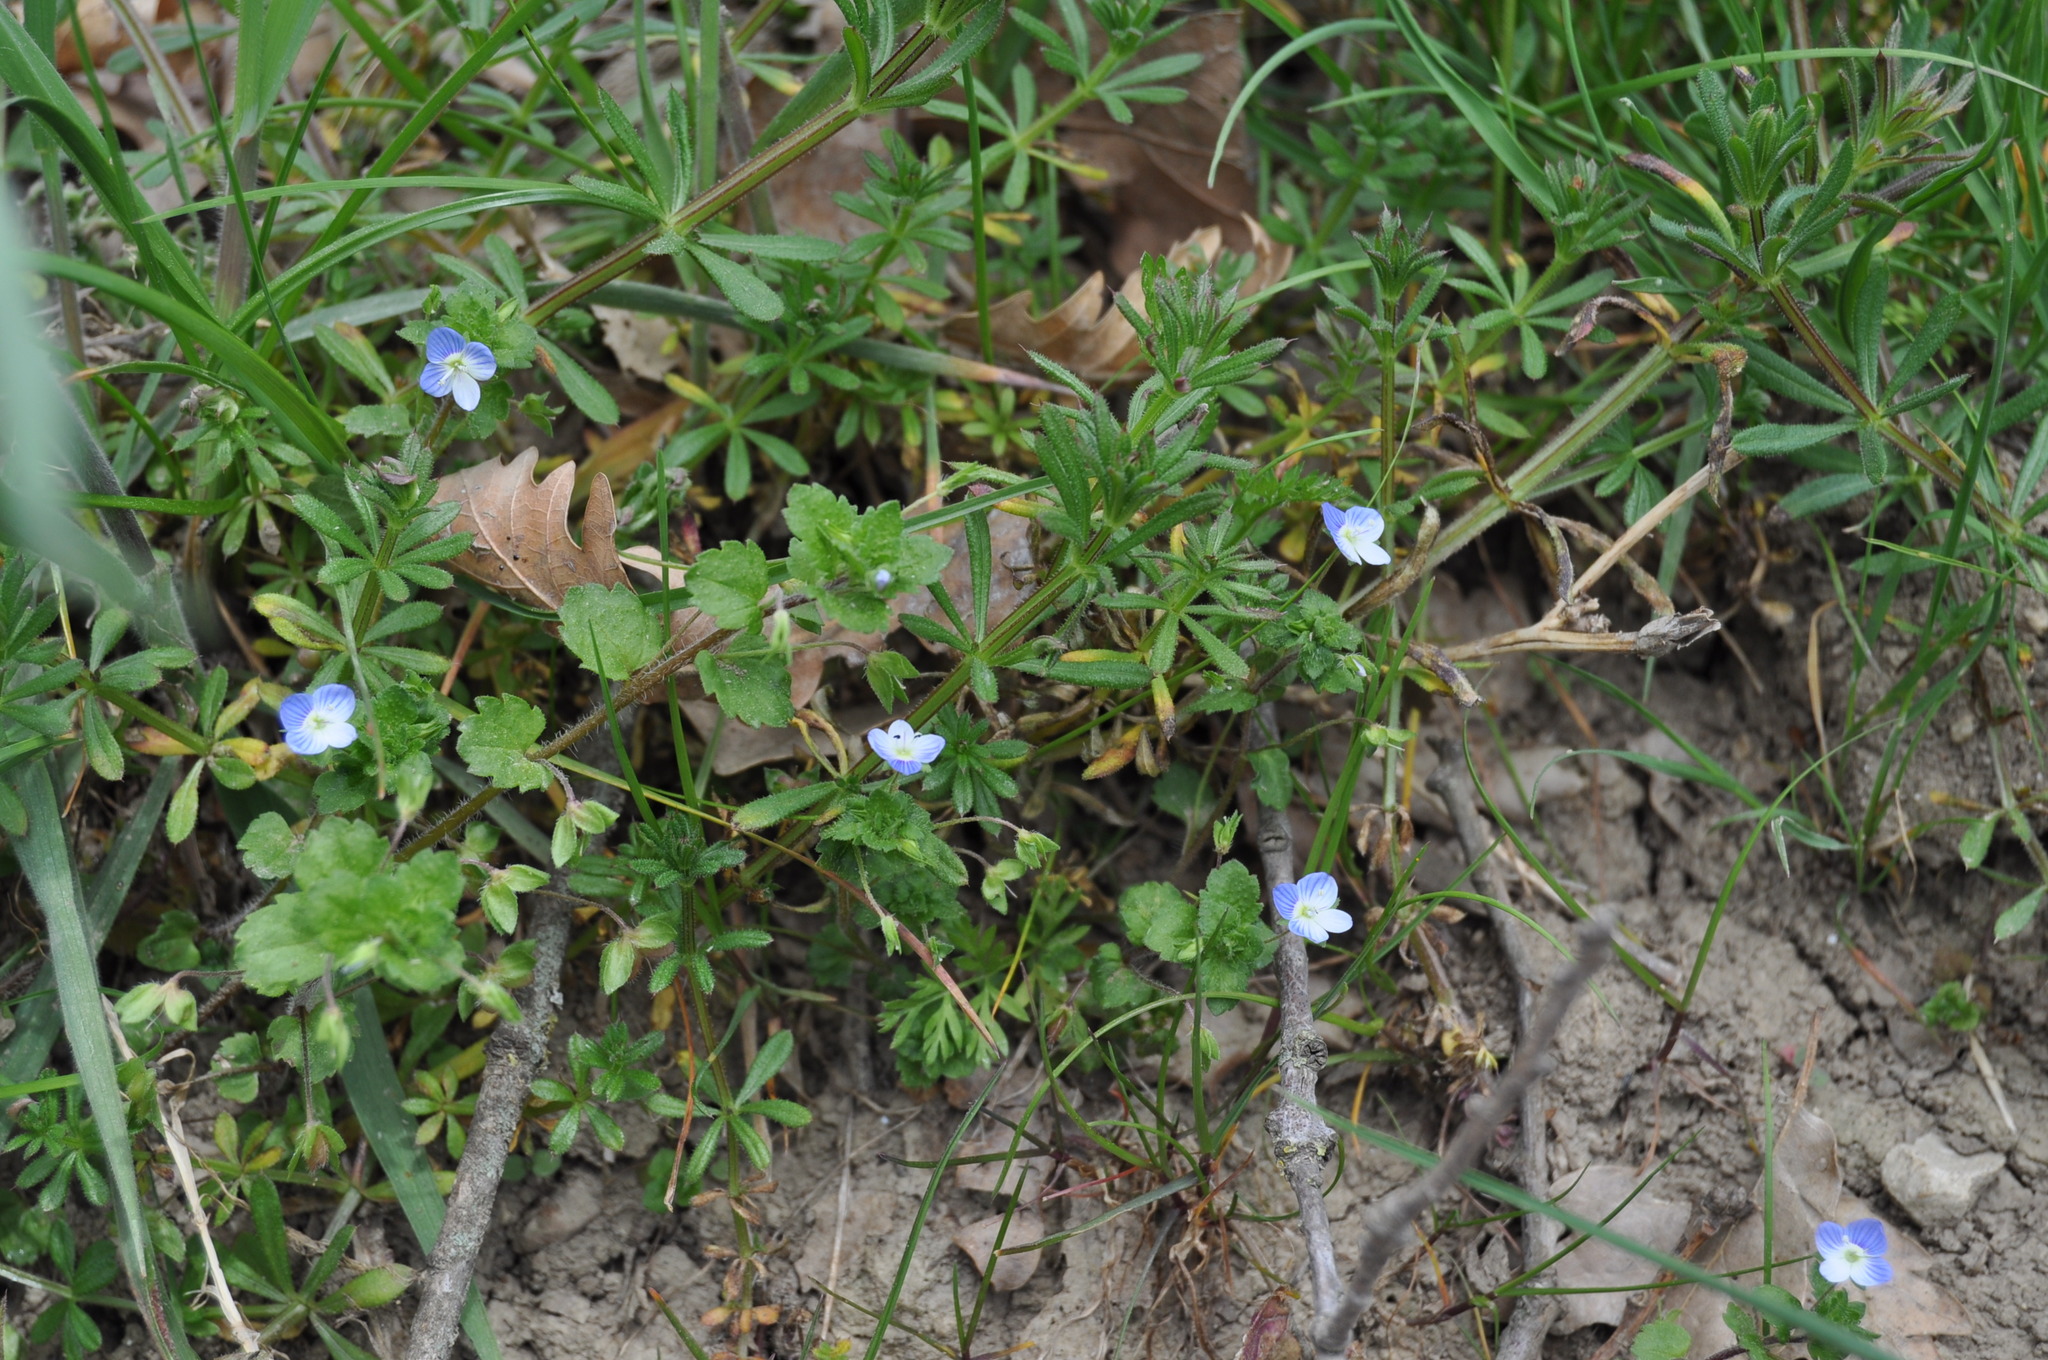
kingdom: Plantae
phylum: Tracheophyta
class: Magnoliopsida
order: Lamiales
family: Plantaginaceae
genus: Veronica
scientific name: Veronica persica
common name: Common field-speedwell
